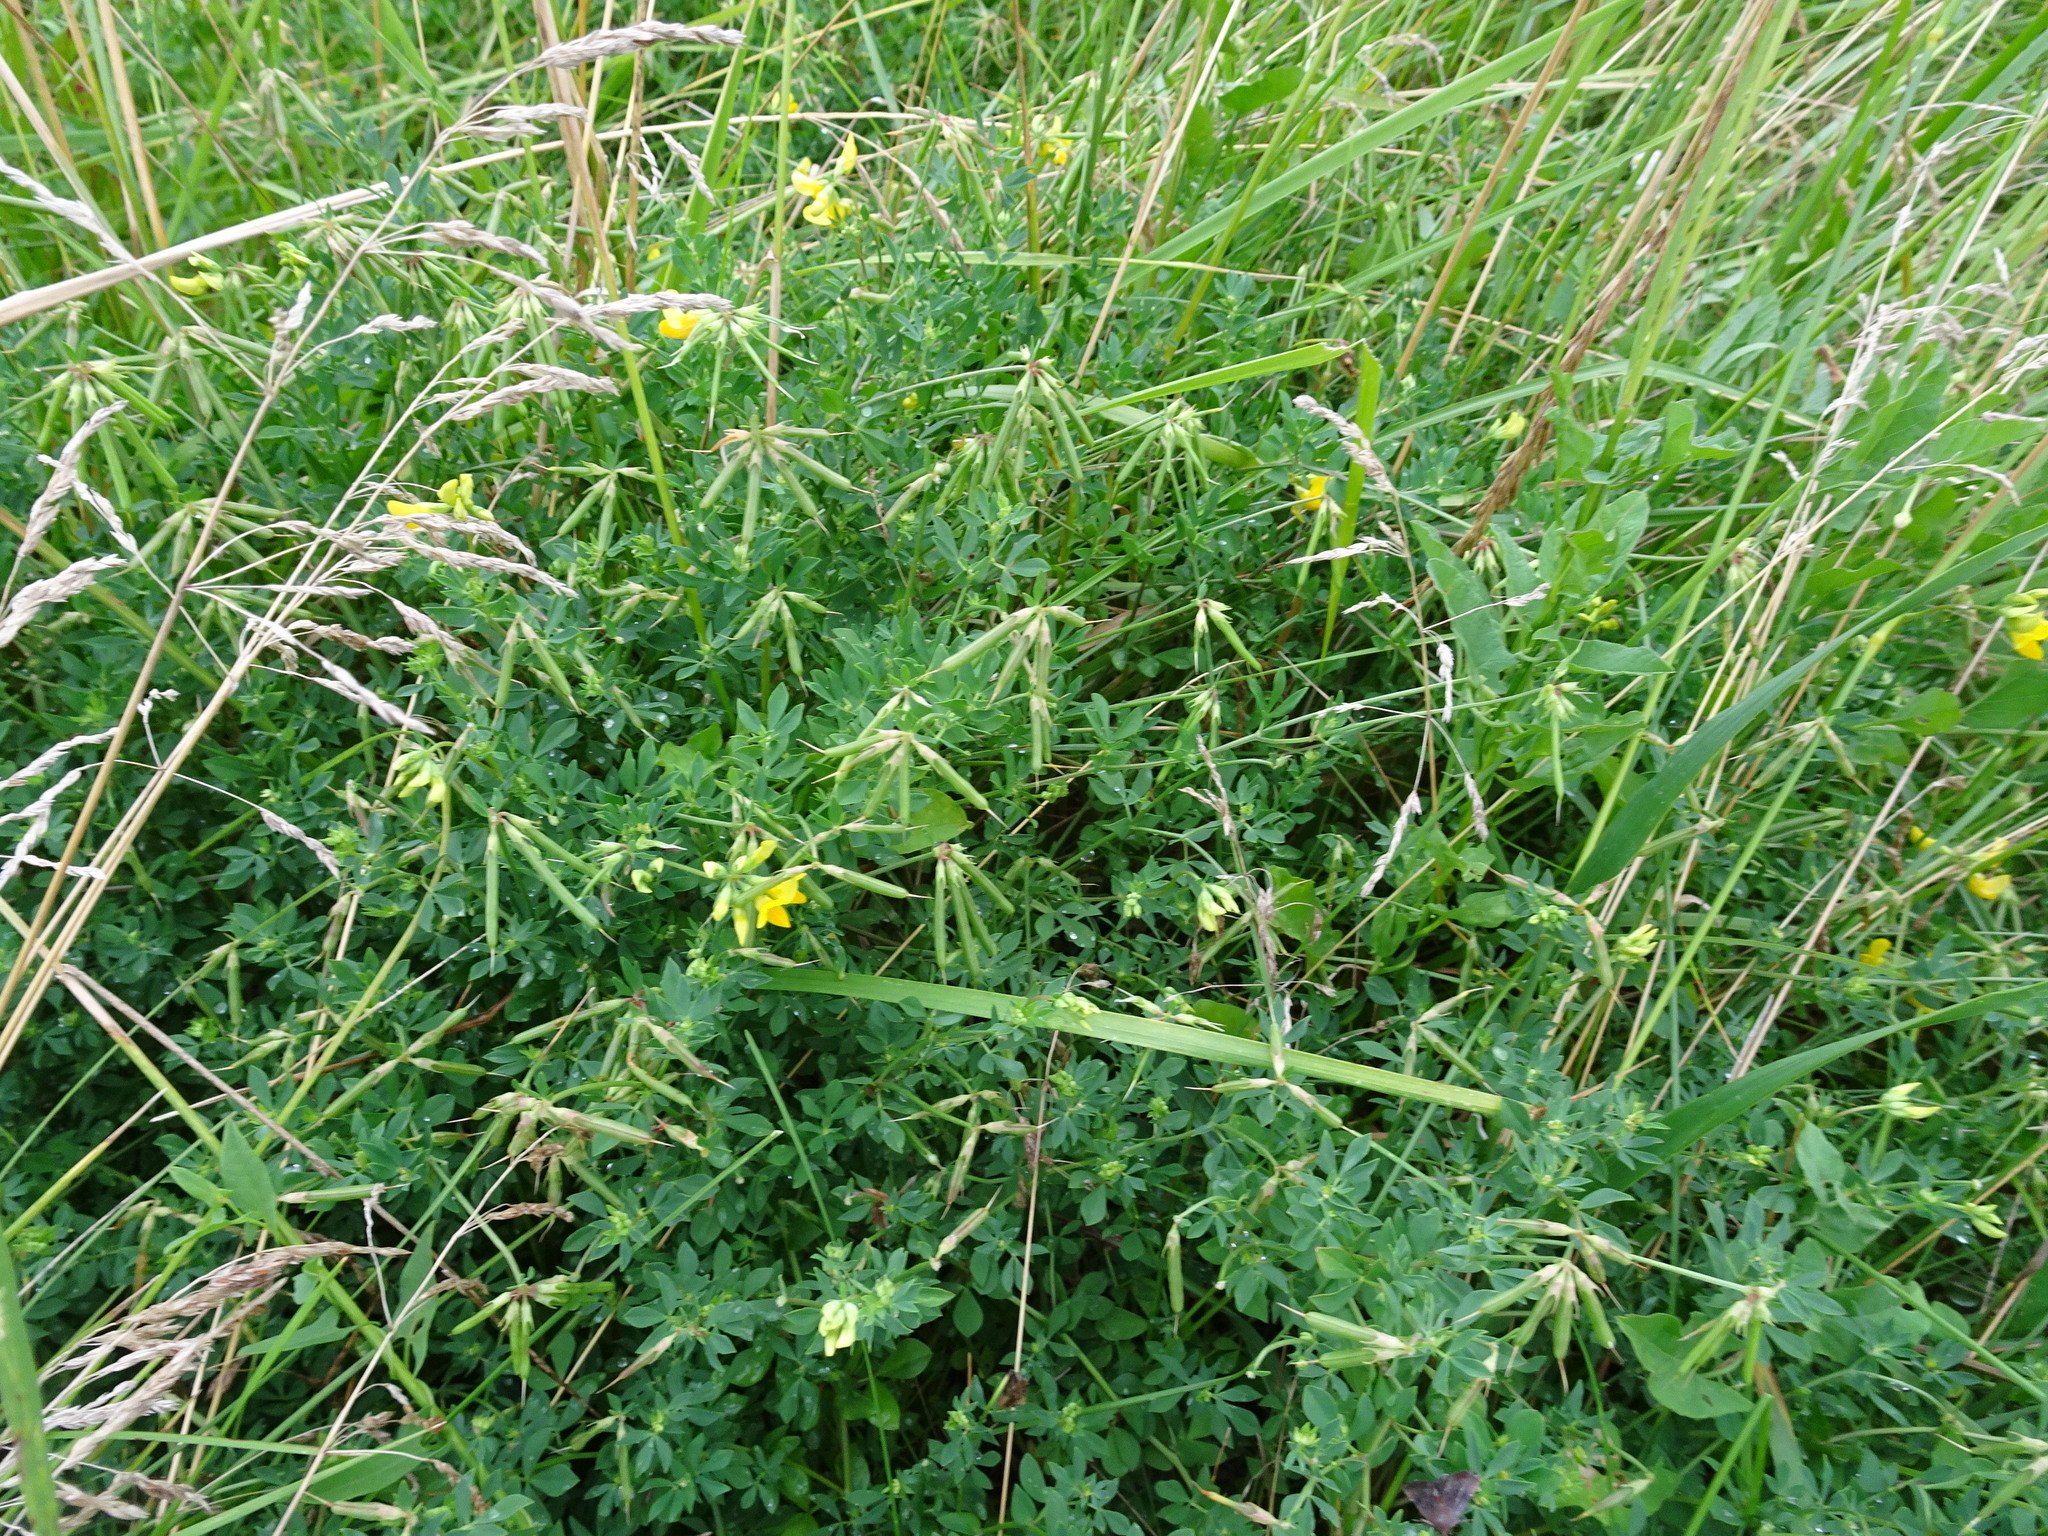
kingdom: Plantae
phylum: Tracheophyta
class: Magnoliopsida
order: Fabales
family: Fabaceae
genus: Lotus
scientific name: Lotus corniculatus
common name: Common bird's-foot-trefoil
